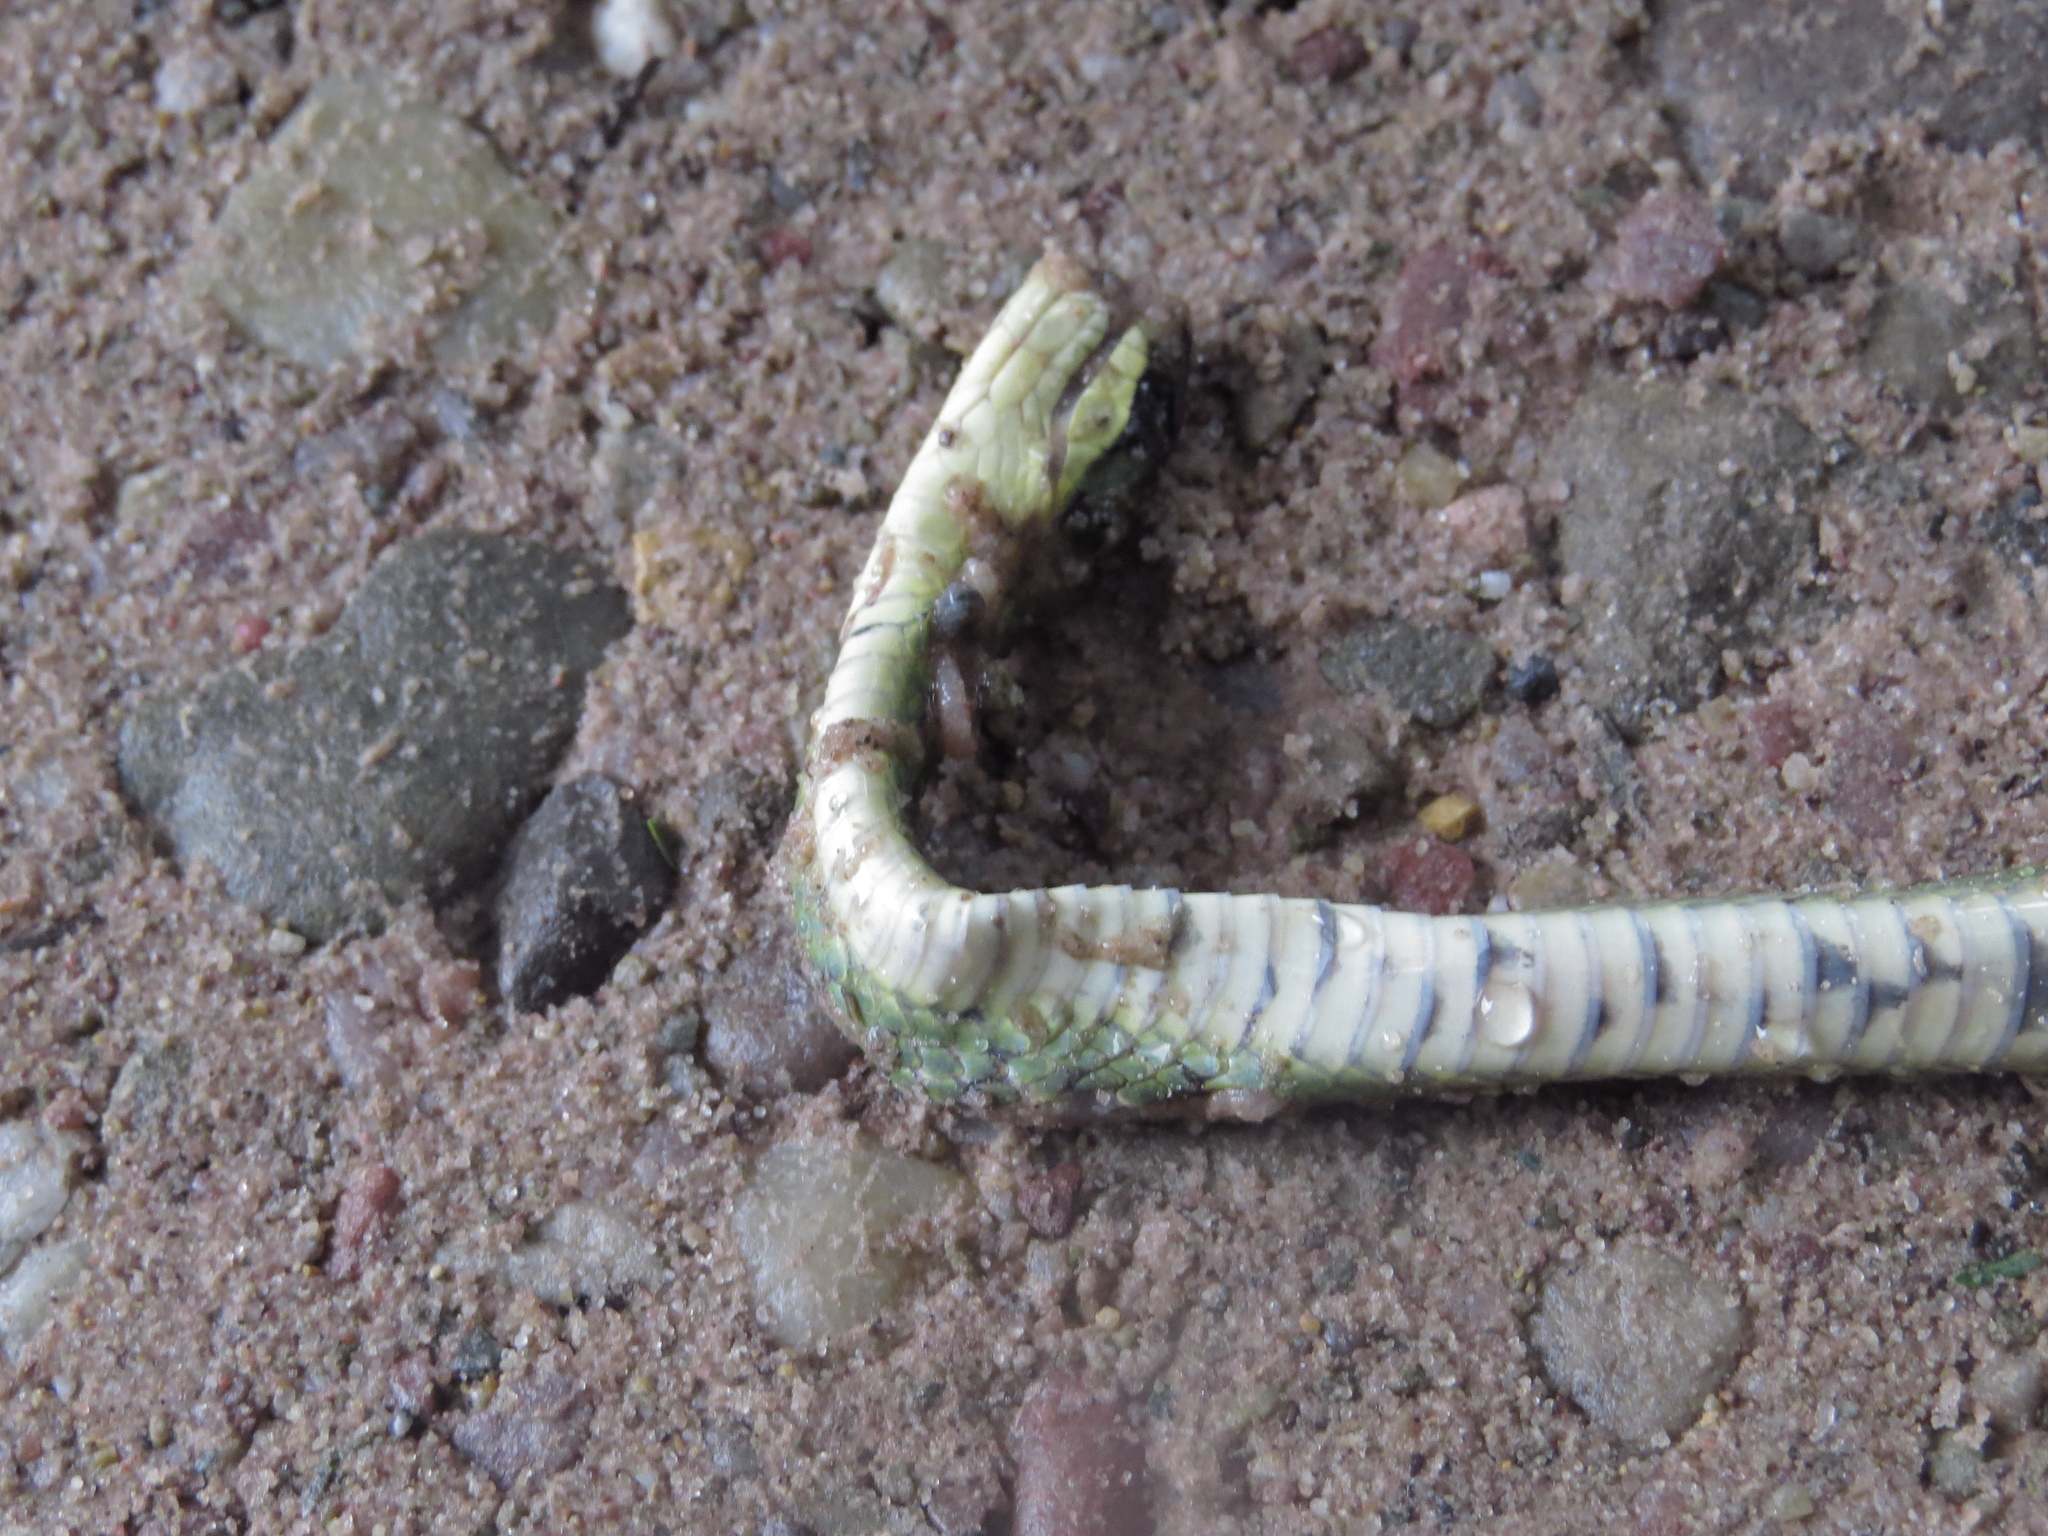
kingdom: Animalia
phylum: Chordata
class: Squamata
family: Colubridae
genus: Erythrolamprus
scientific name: Erythrolamprus ceii
